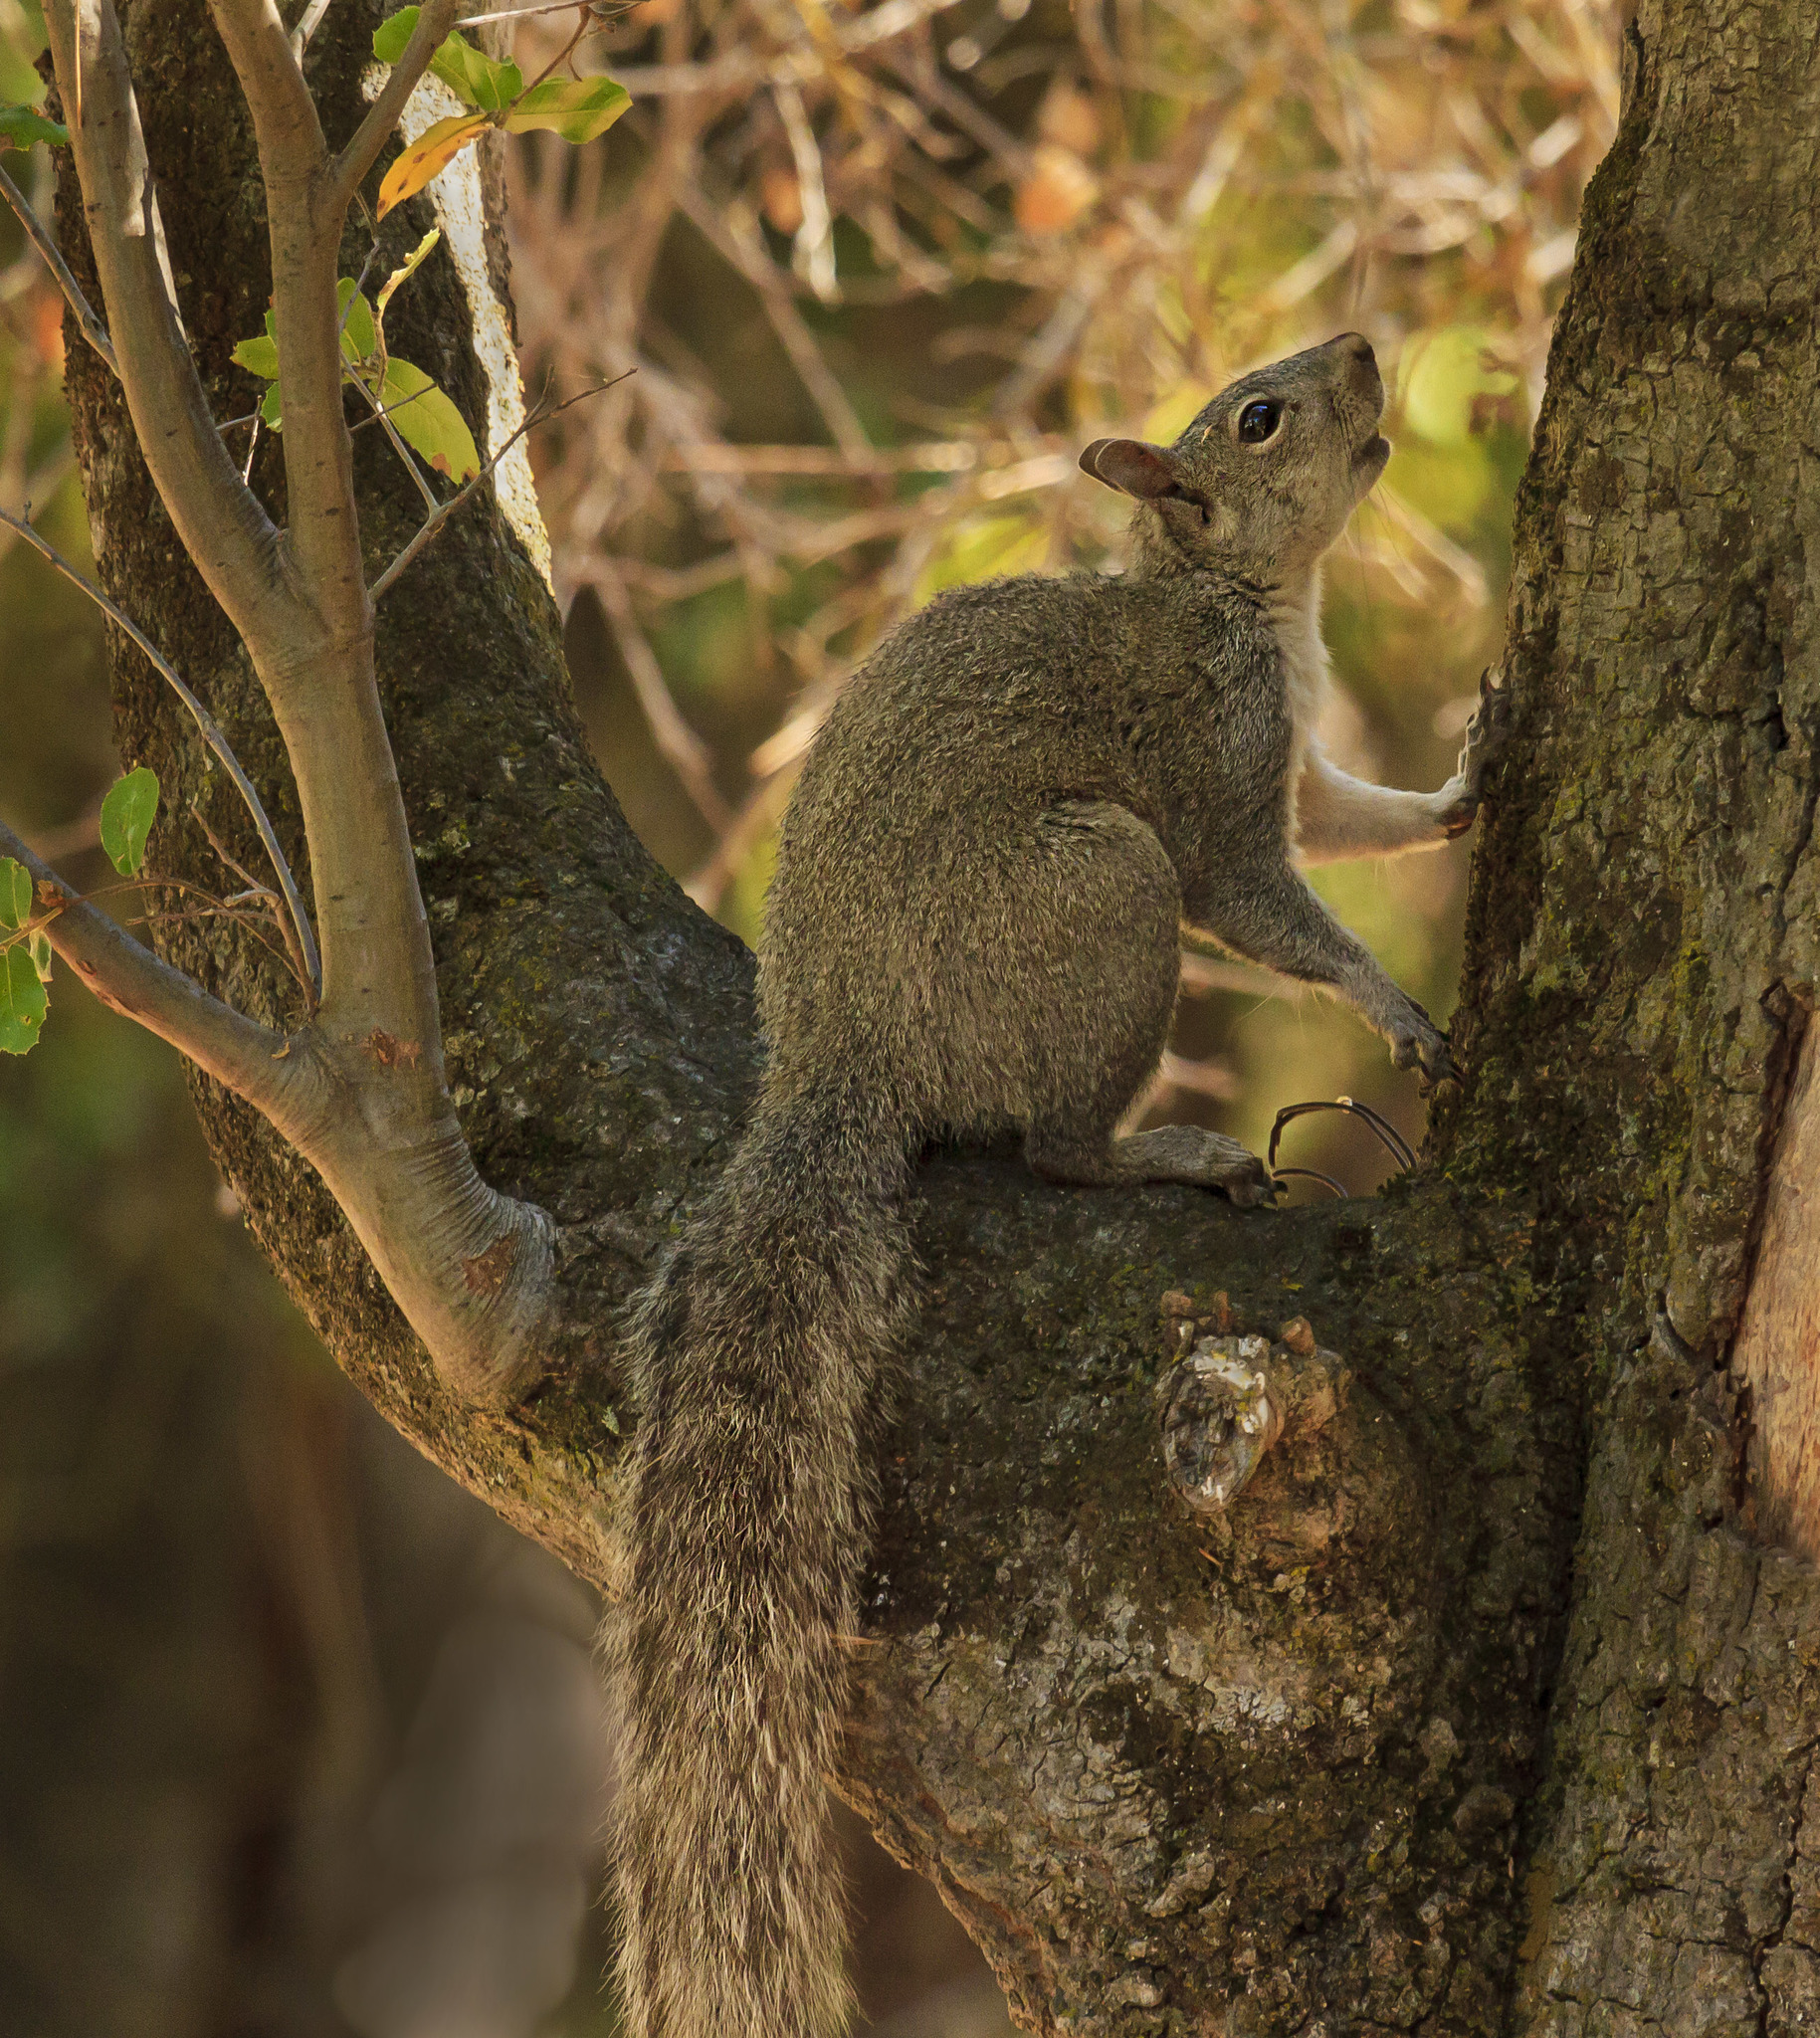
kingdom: Animalia
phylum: Chordata
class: Mammalia
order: Rodentia
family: Sciuridae
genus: Sciurus
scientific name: Sciurus griseus
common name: Western gray squirrel
